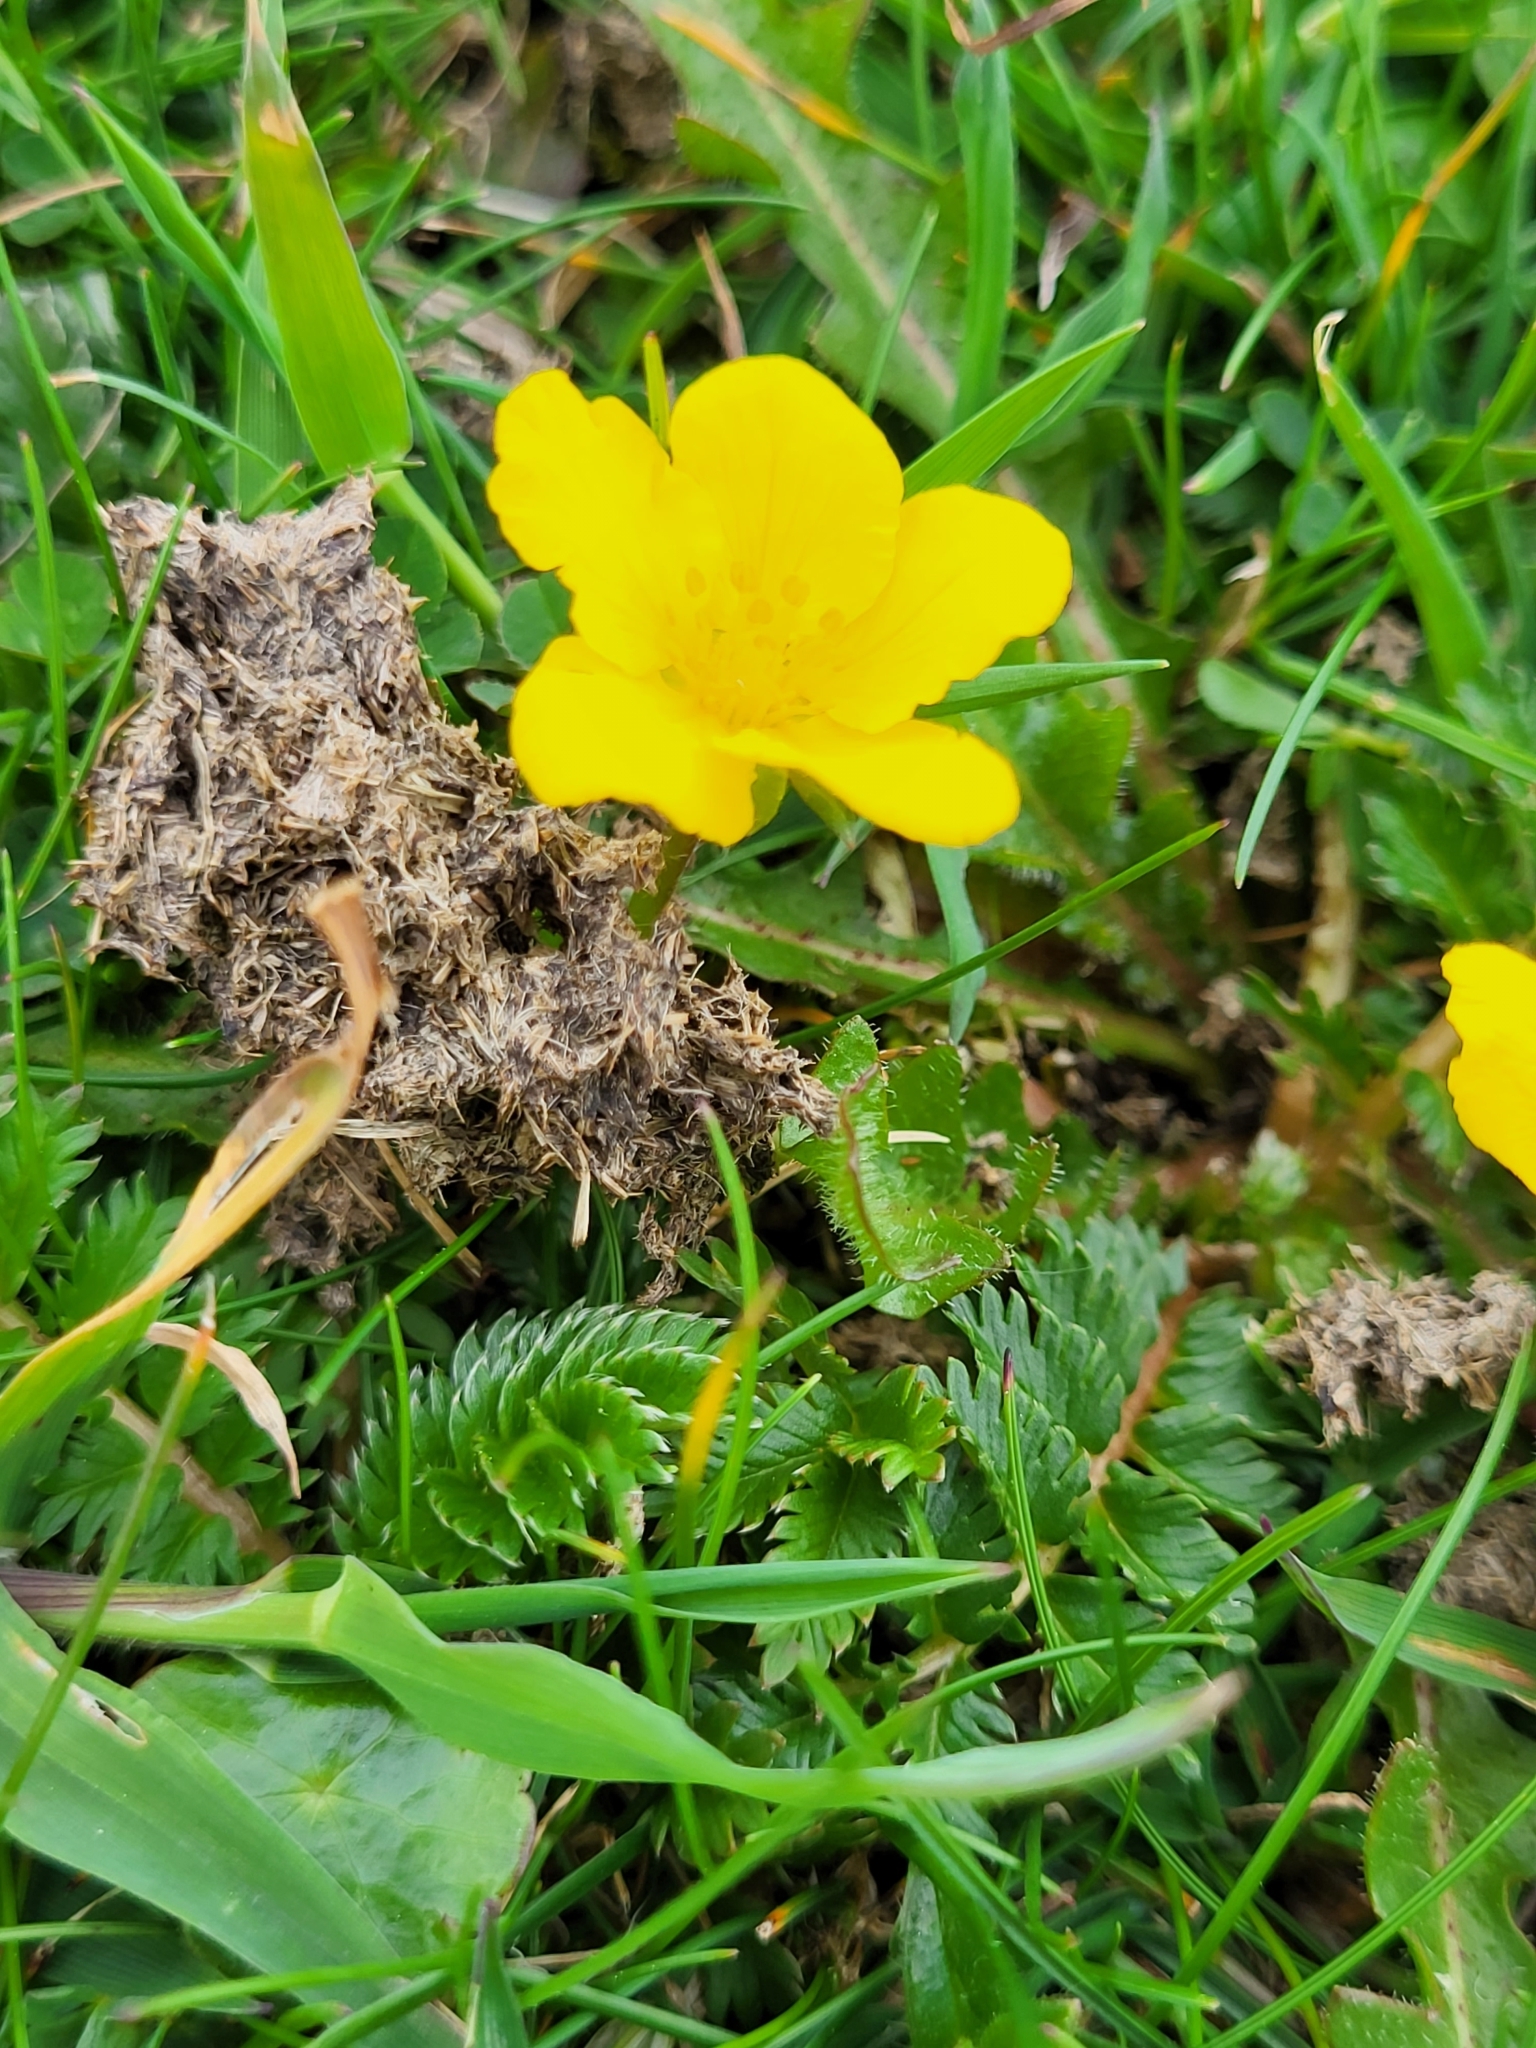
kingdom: Plantae
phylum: Tracheophyta
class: Magnoliopsida
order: Rosales
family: Rosaceae
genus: Argentina
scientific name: Argentina anserina
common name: Common silverweed
